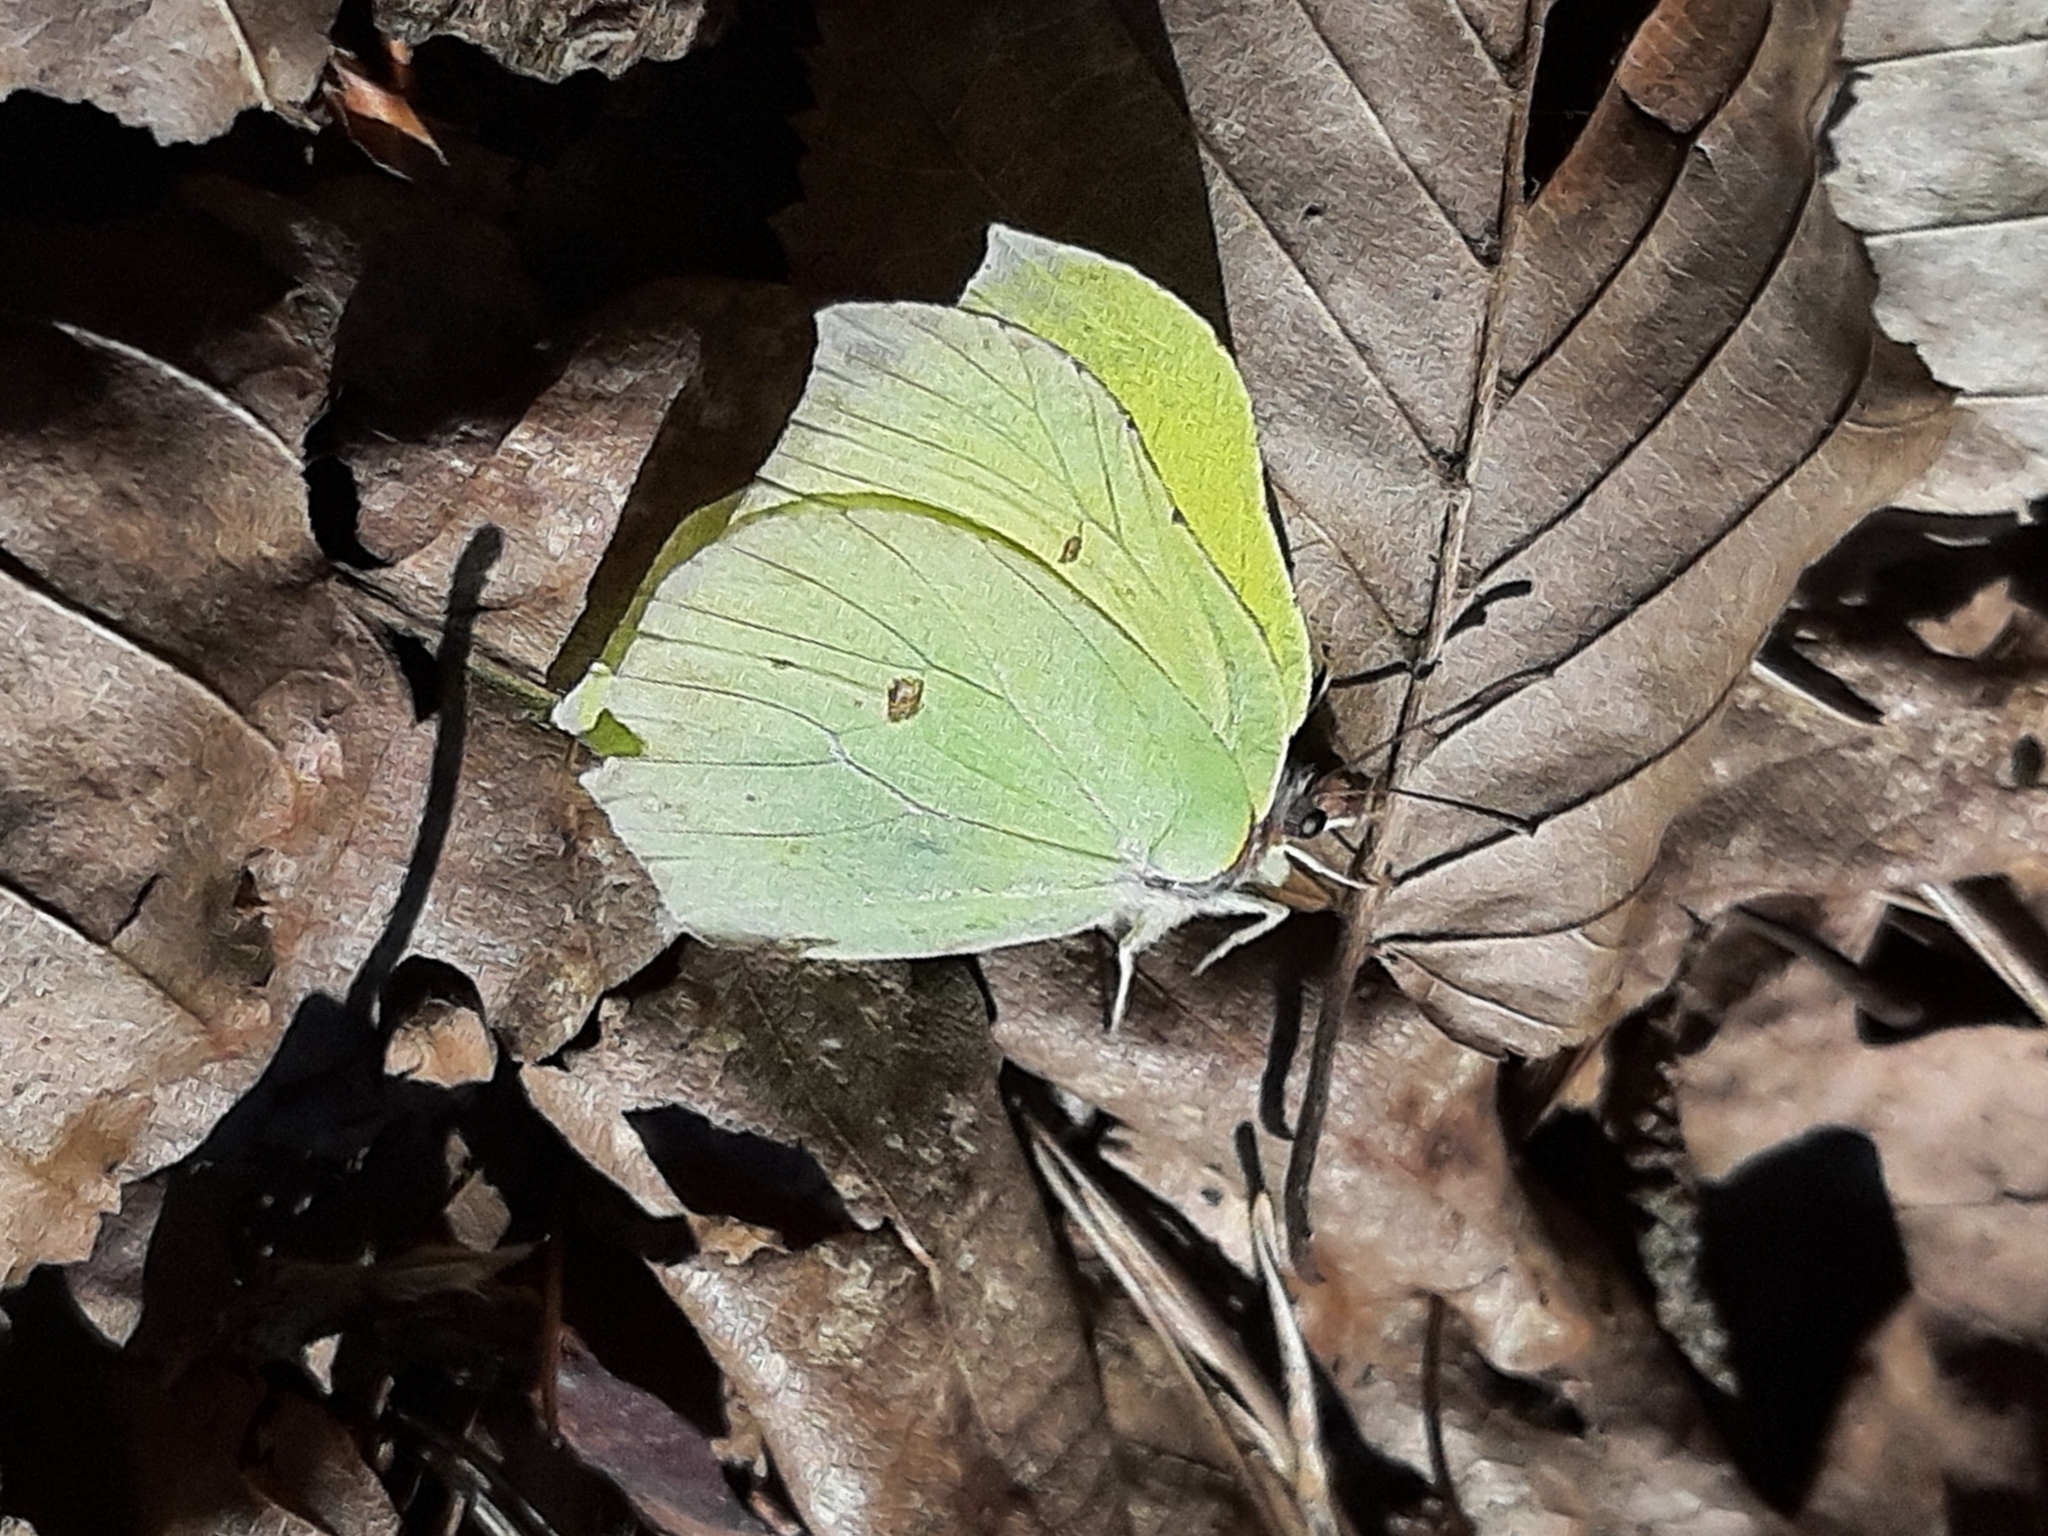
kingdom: Animalia
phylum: Arthropoda
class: Insecta
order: Lepidoptera
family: Pieridae
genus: Gonepteryx
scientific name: Gonepteryx rhamni
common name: Brimstone
